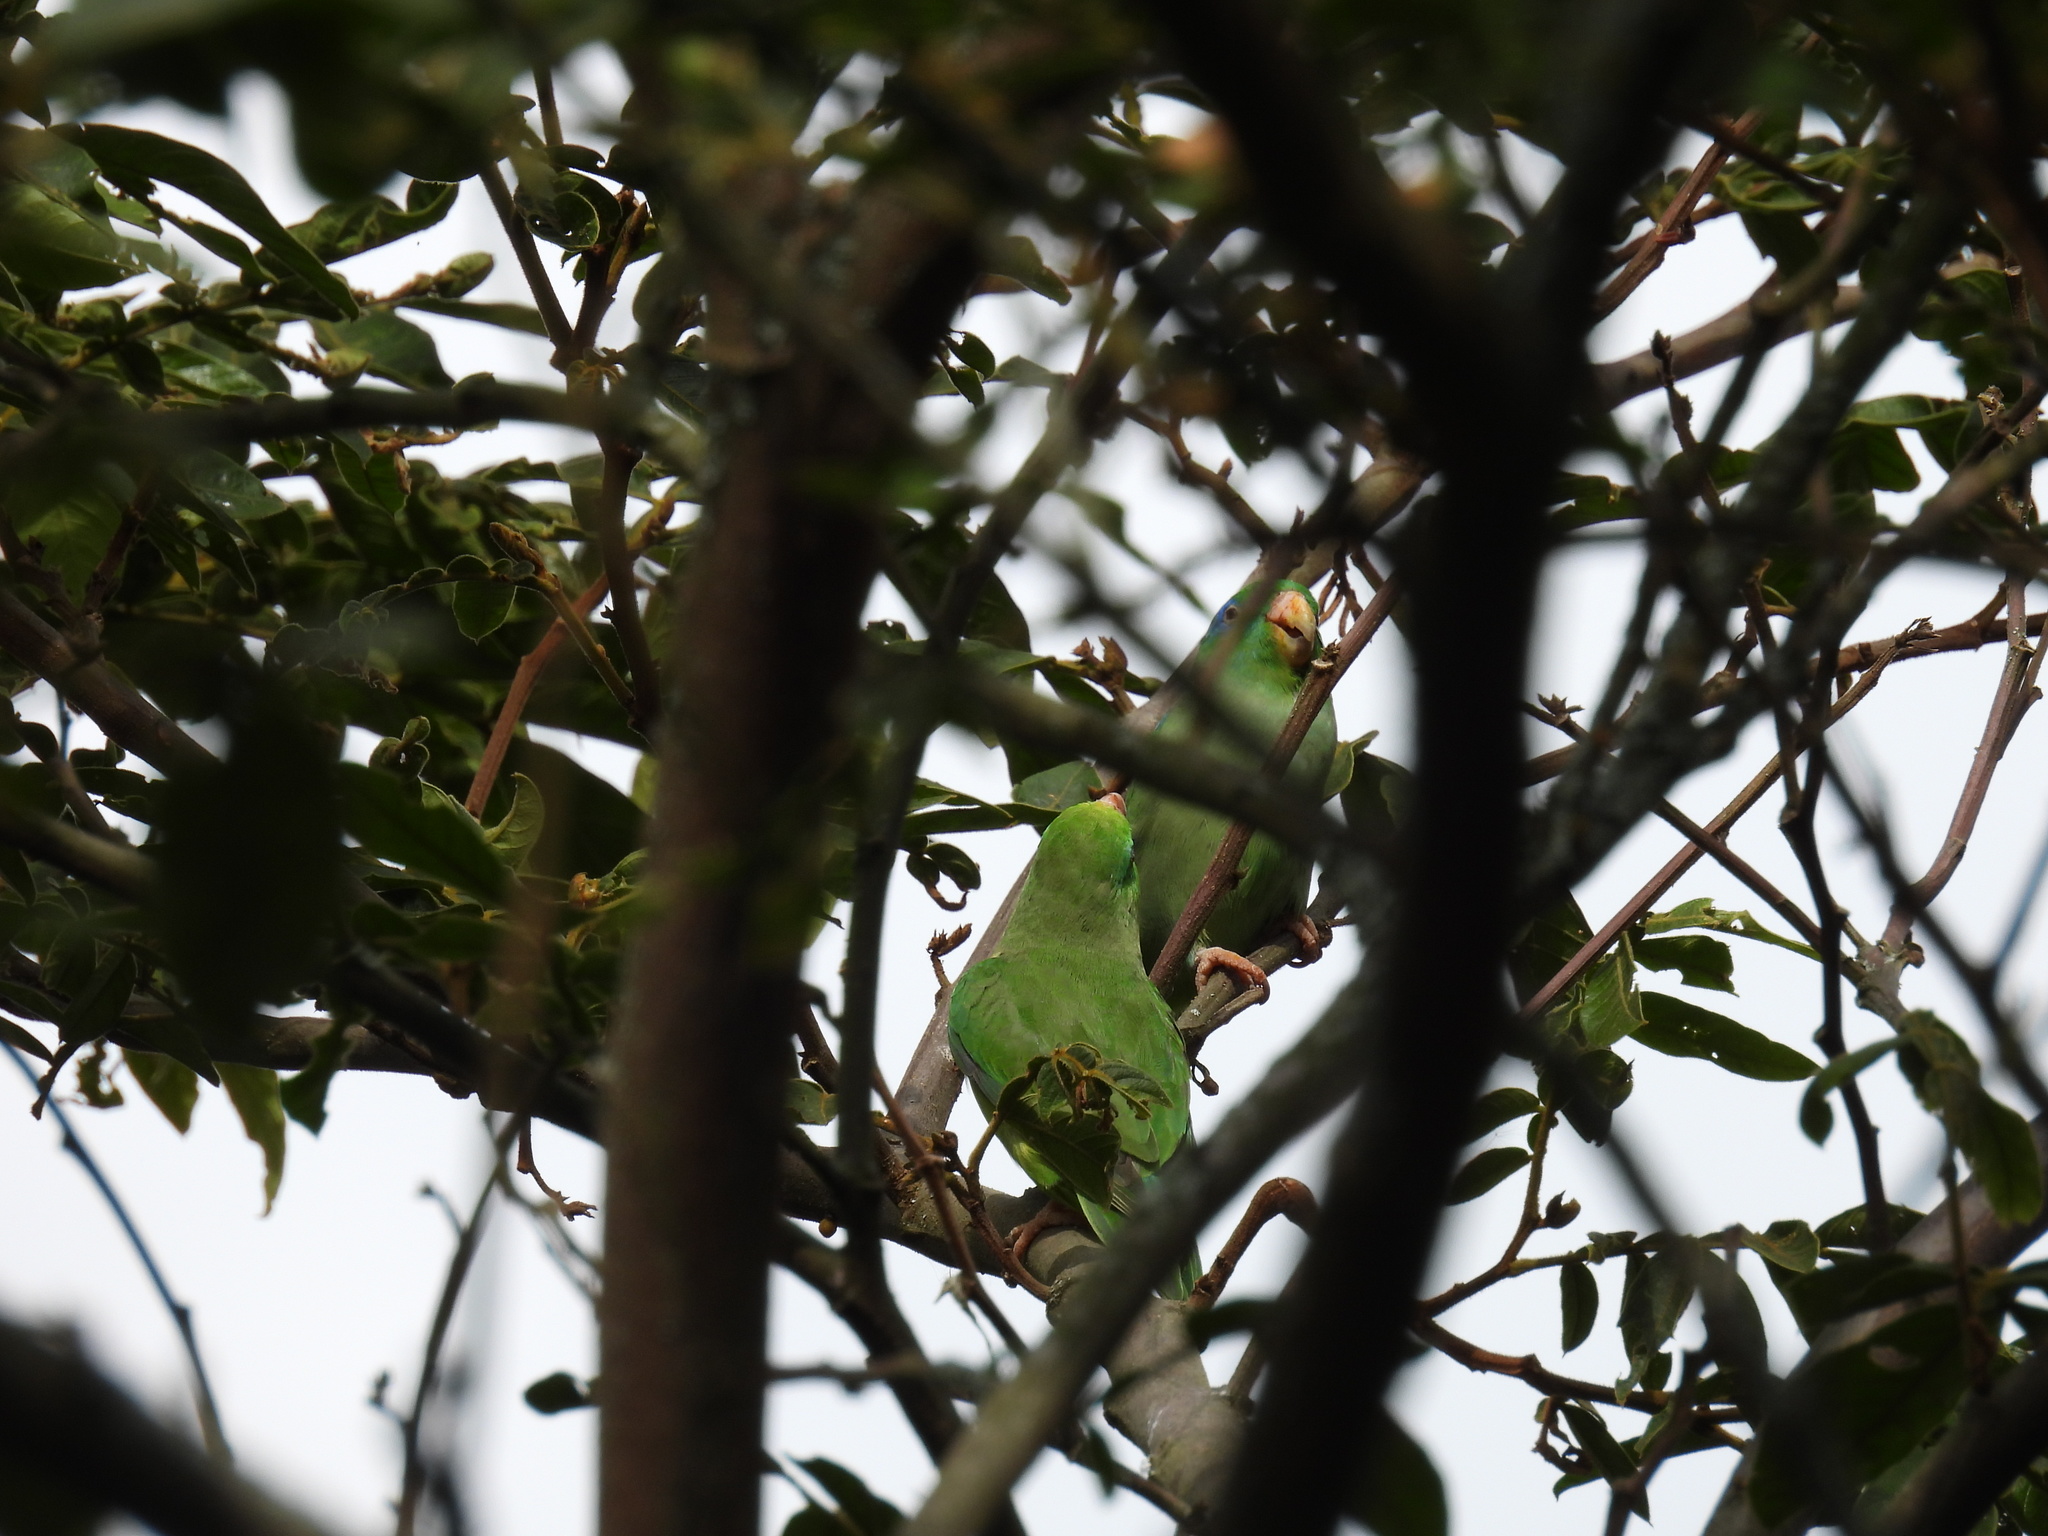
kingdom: Animalia
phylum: Chordata
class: Aves
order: Psittaciformes
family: Psittacidae
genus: Forpus
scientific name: Forpus conspicillatus
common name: Spectacled parrotlet
